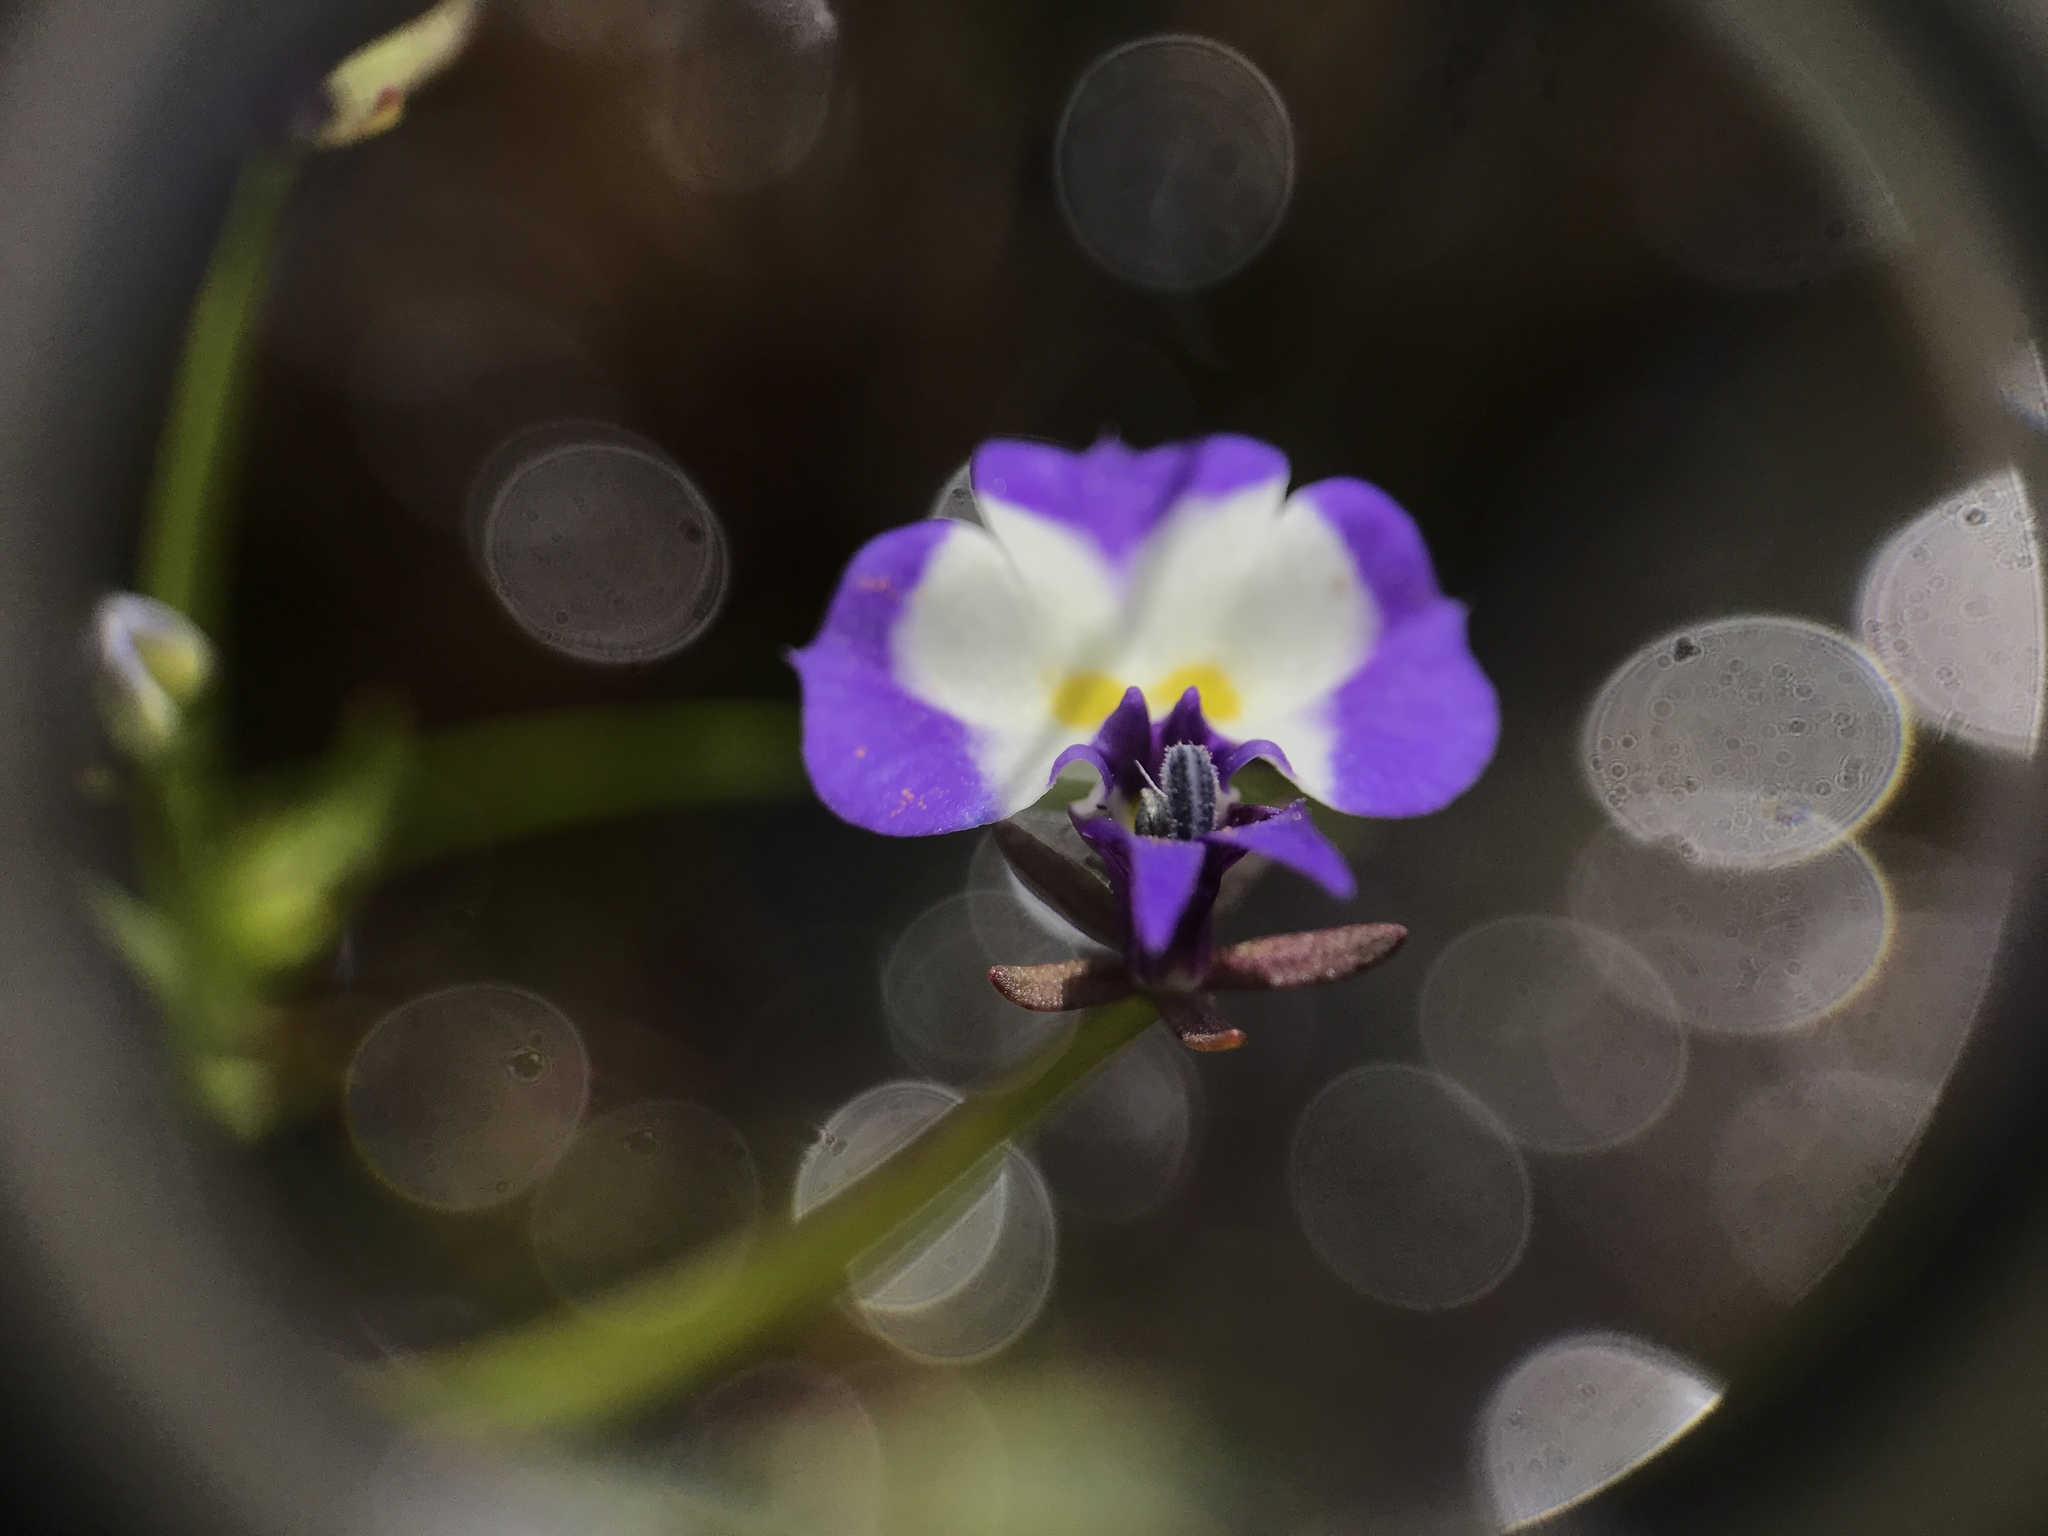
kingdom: Plantae
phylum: Tracheophyta
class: Magnoliopsida
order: Asterales
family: Campanulaceae
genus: Downingia
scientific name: Downingia bicornuta
